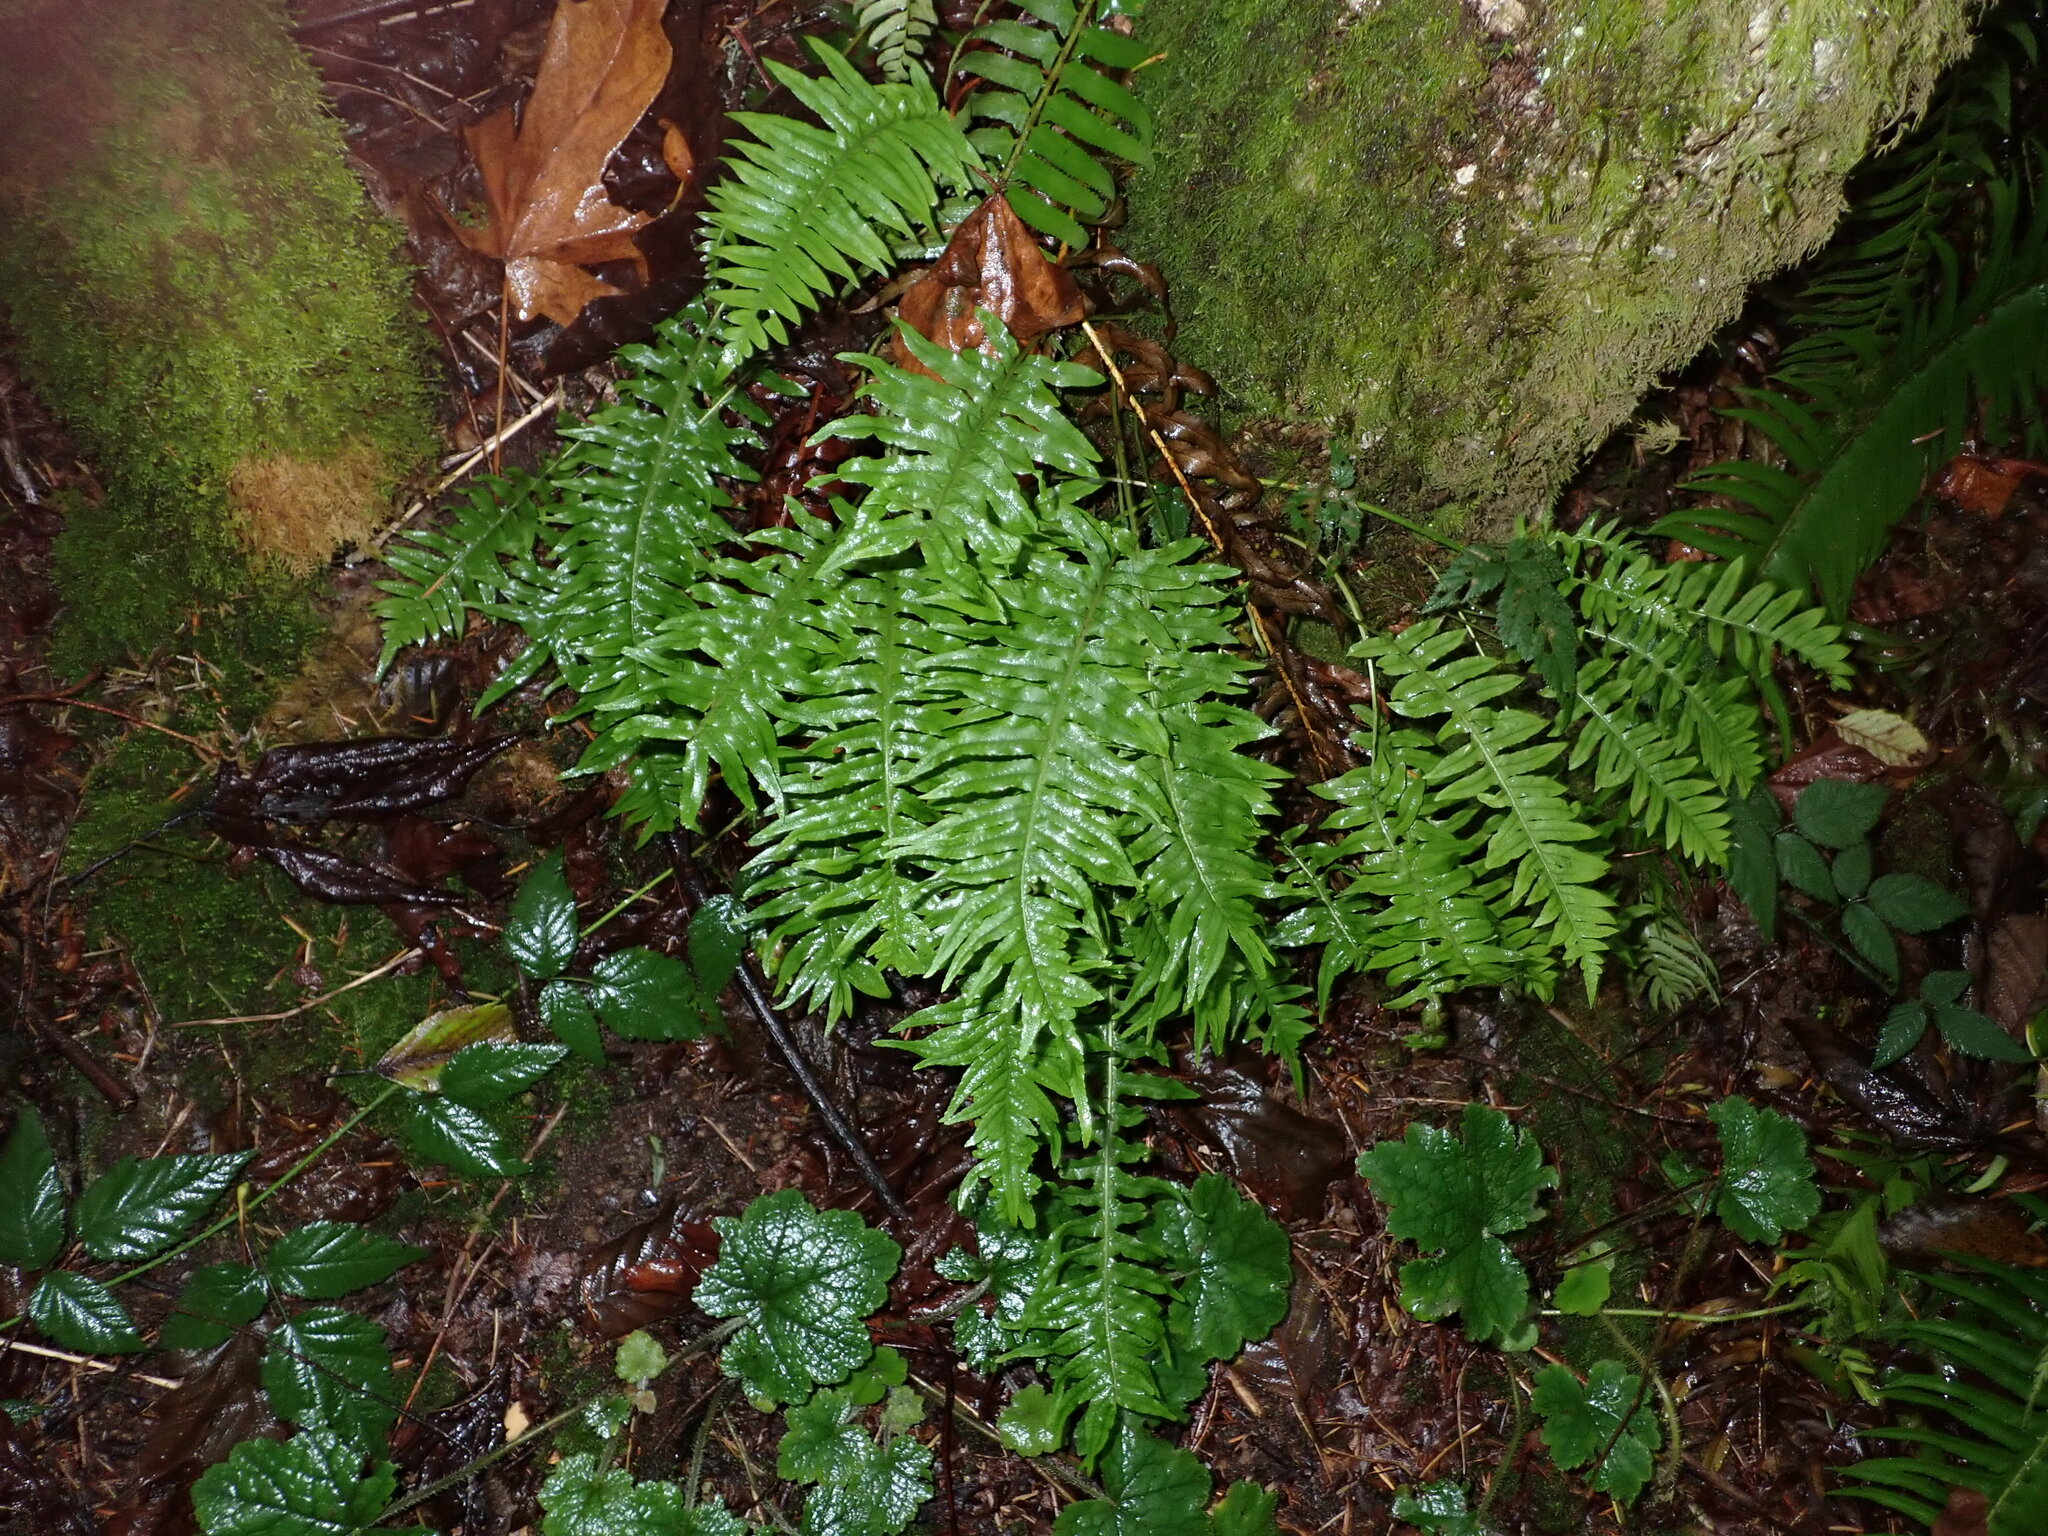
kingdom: Plantae
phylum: Tracheophyta
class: Polypodiopsida
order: Polypodiales
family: Polypodiaceae
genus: Polypodium
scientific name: Polypodium glycyrrhiza
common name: Licorice fern
